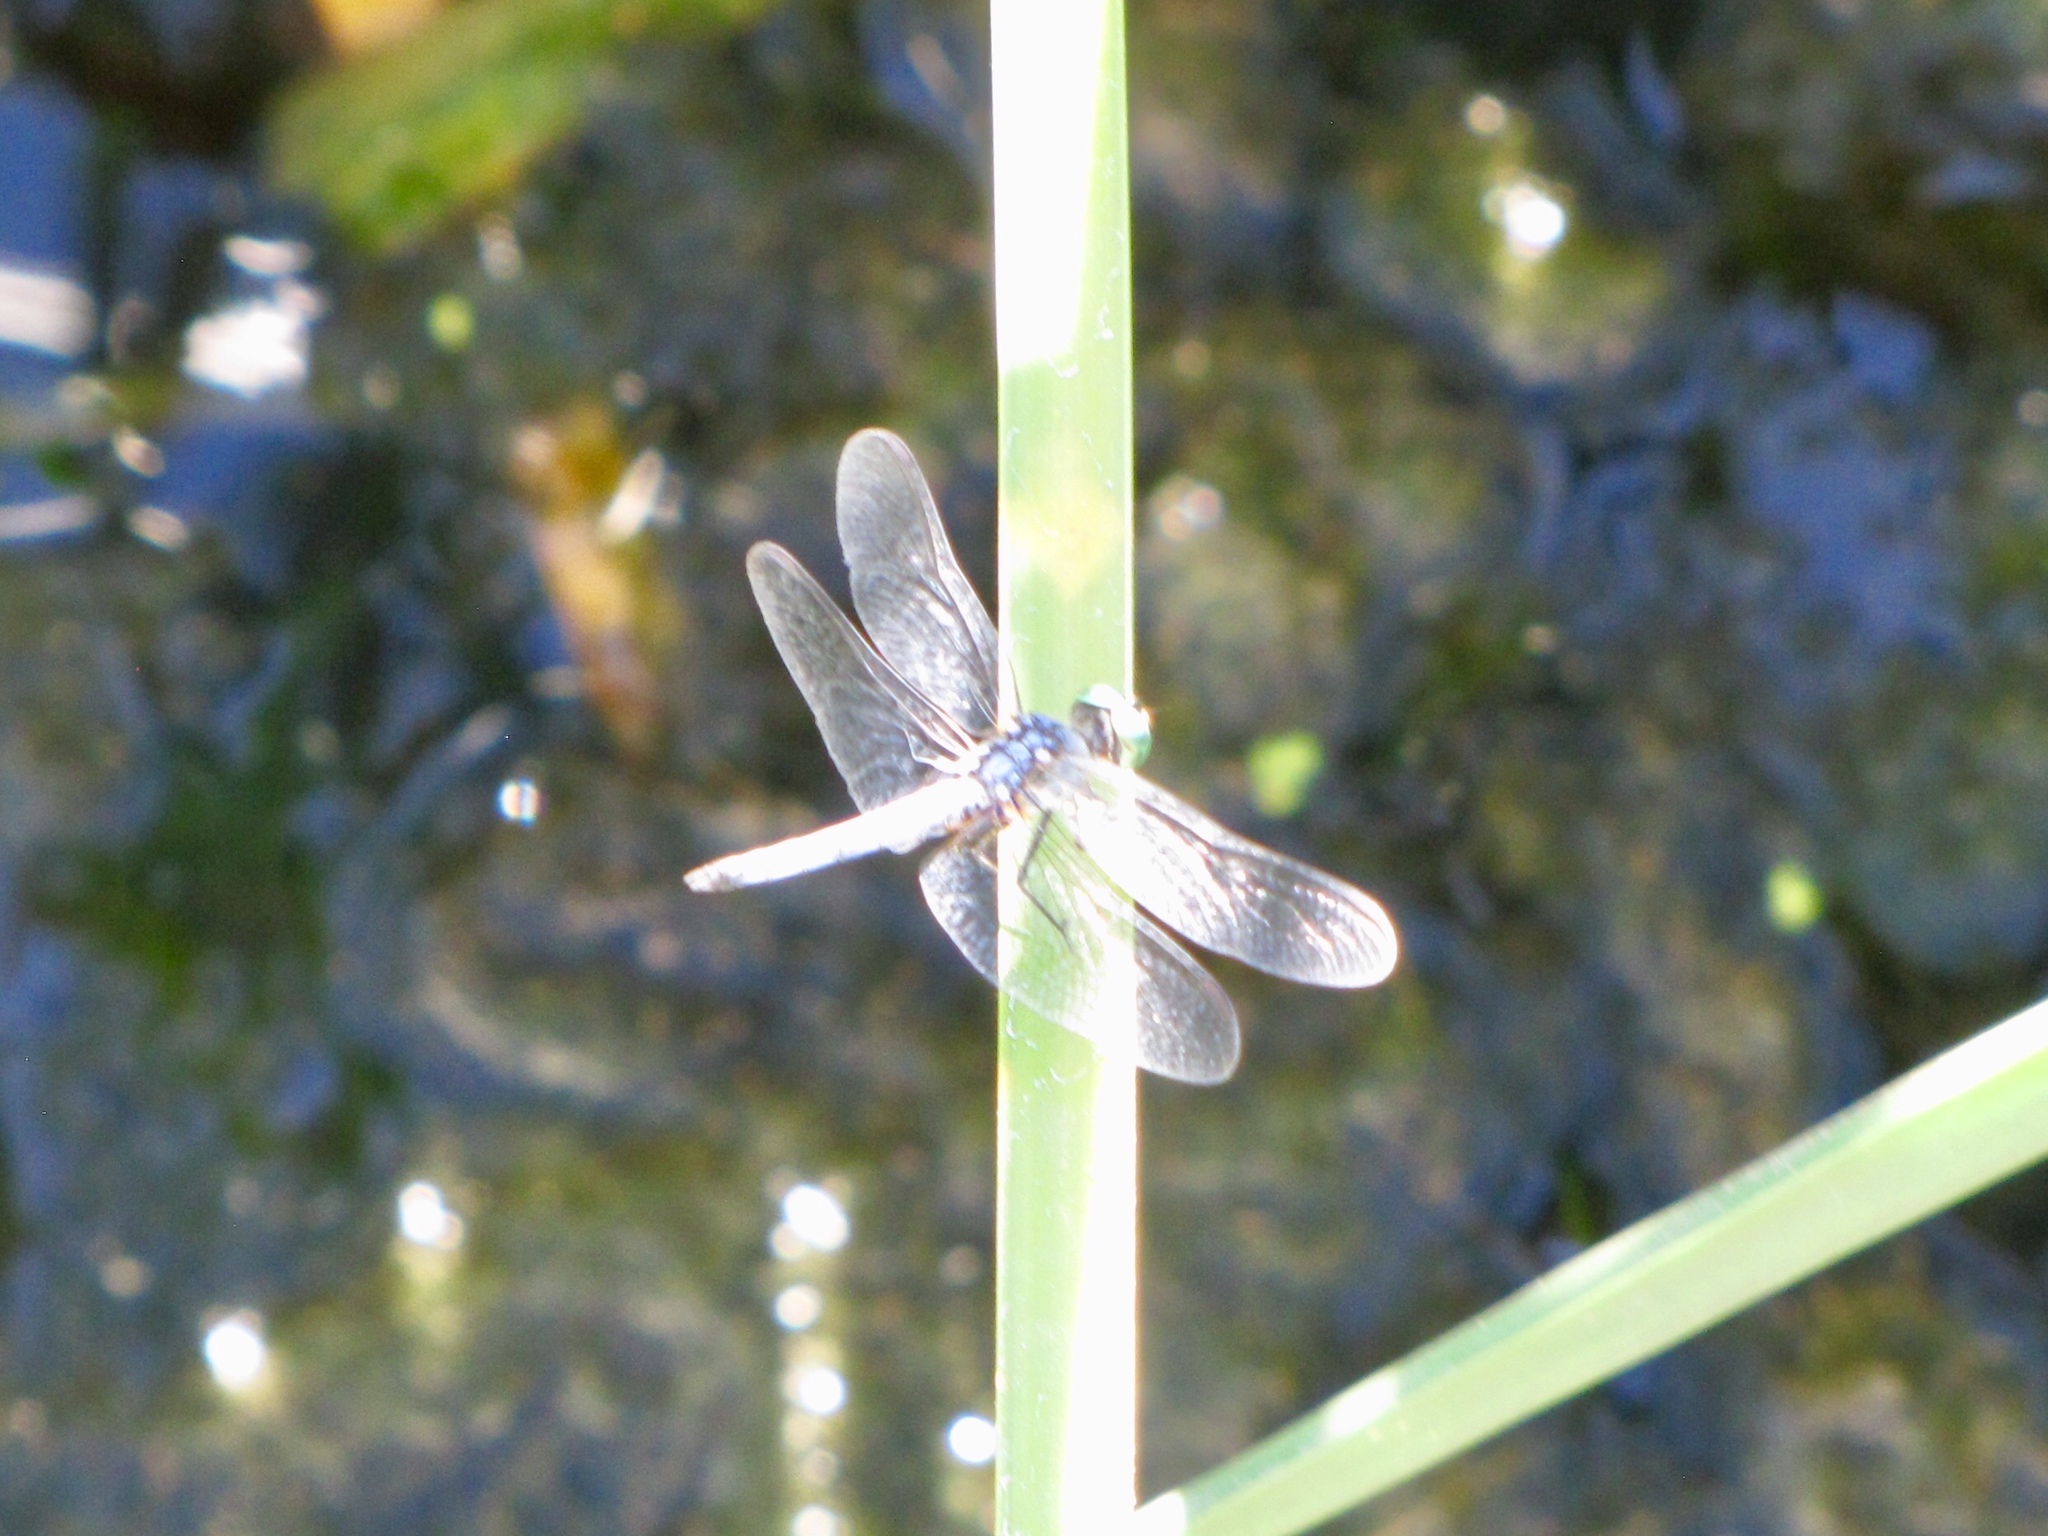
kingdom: Animalia
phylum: Arthropoda
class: Insecta
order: Odonata
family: Libellulidae
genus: Pachydiplax
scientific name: Pachydiplax longipennis
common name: Blue dasher
